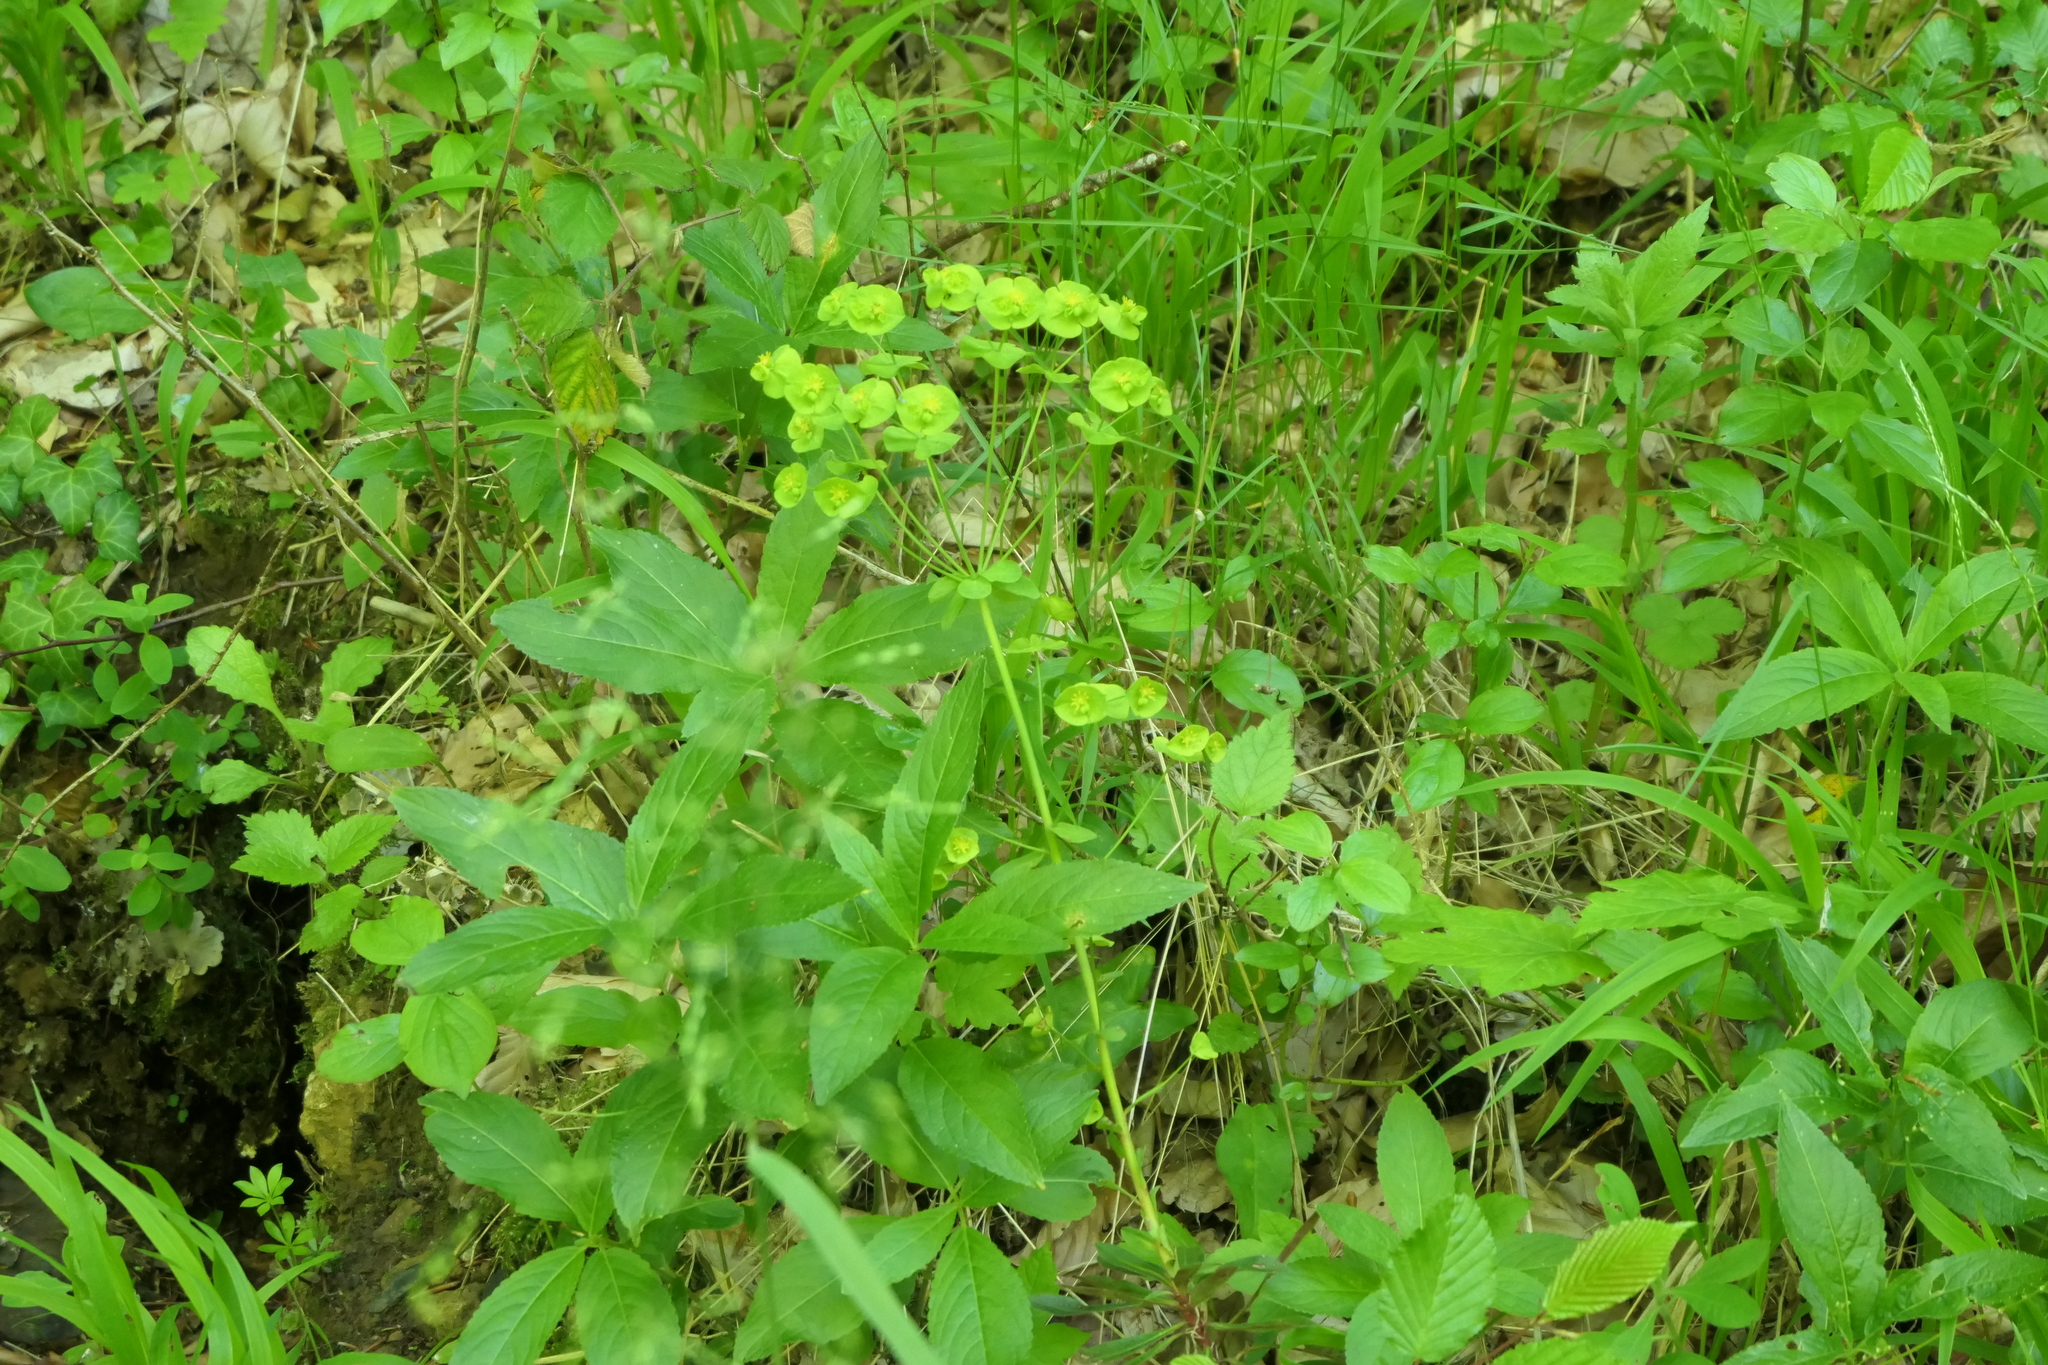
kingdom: Plantae
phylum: Tracheophyta
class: Magnoliopsida
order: Malpighiales
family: Euphorbiaceae
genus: Euphorbia
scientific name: Euphorbia amygdaloides
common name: Wood spurge
